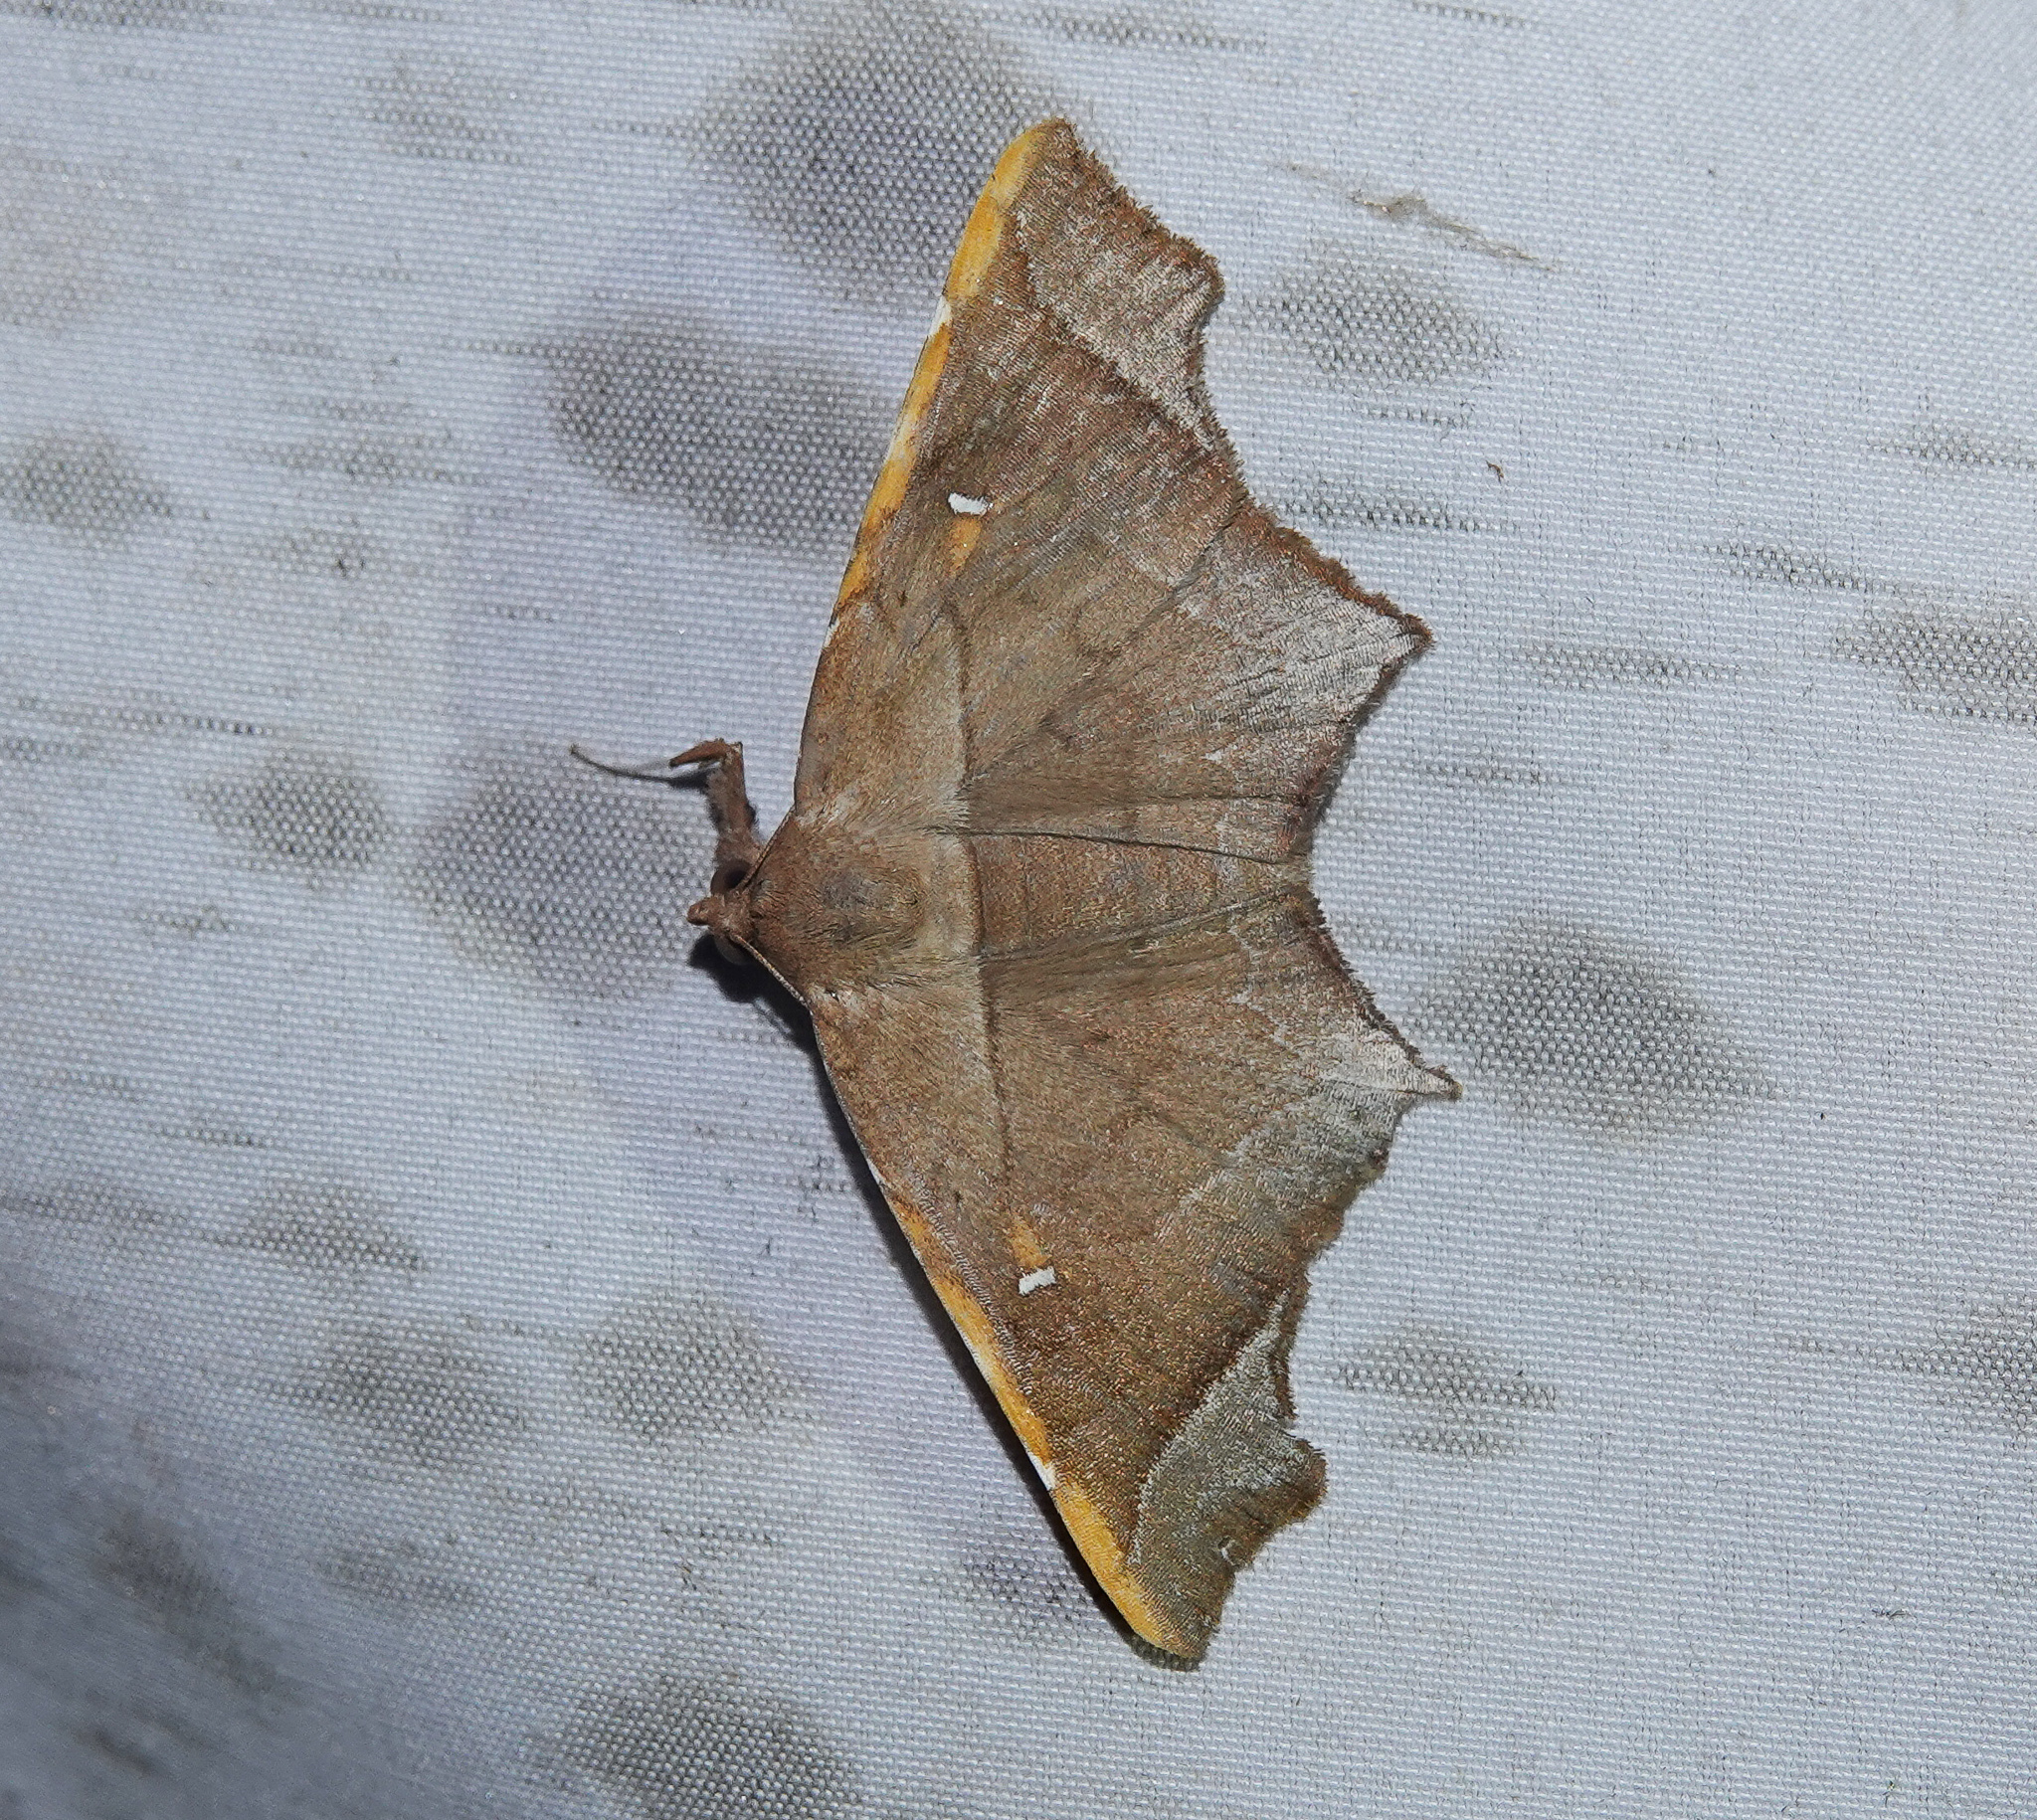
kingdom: Animalia
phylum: Arthropoda
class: Insecta
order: Lepidoptera
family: Erebidae
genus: Episparis
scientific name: Episparis costistriga
